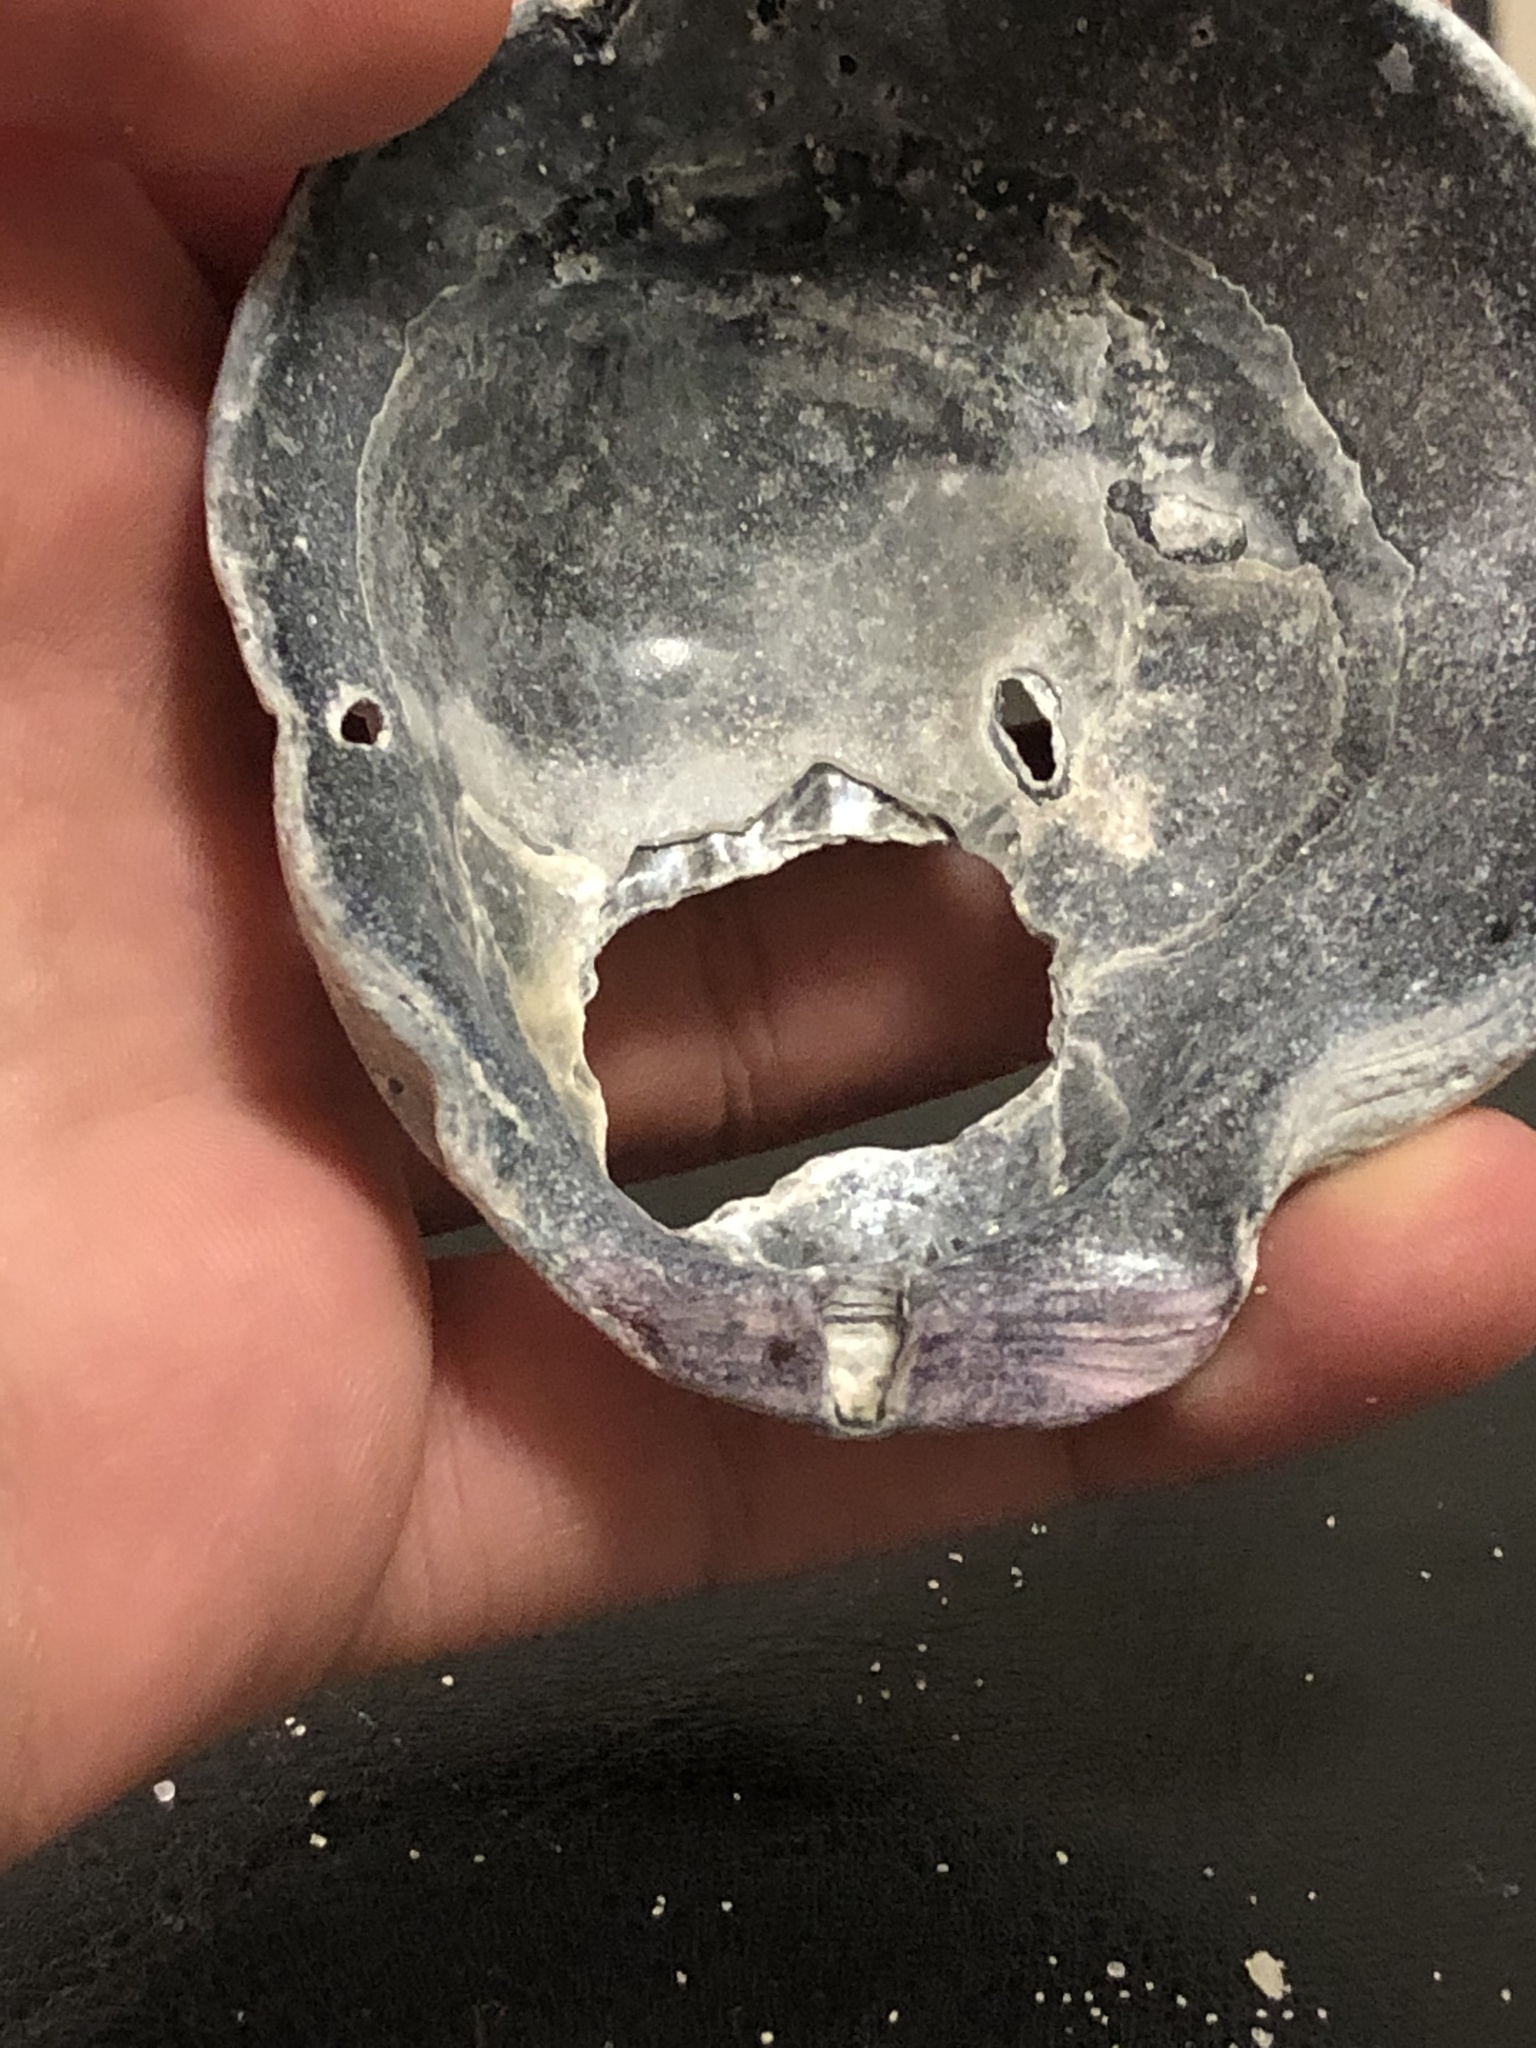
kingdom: Animalia
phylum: Mollusca
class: Bivalvia
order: Pectinida
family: Pectinidae
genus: Crassadoma
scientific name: Crassadoma gigantea
